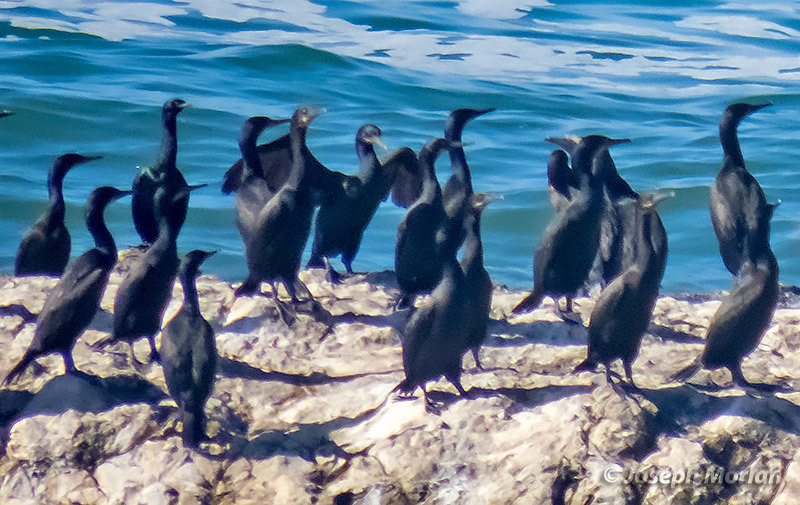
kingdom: Animalia
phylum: Chordata
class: Aves
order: Suliformes
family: Phalacrocoracidae
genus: Urile
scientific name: Urile penicillatus
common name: Brandt's cormorant
